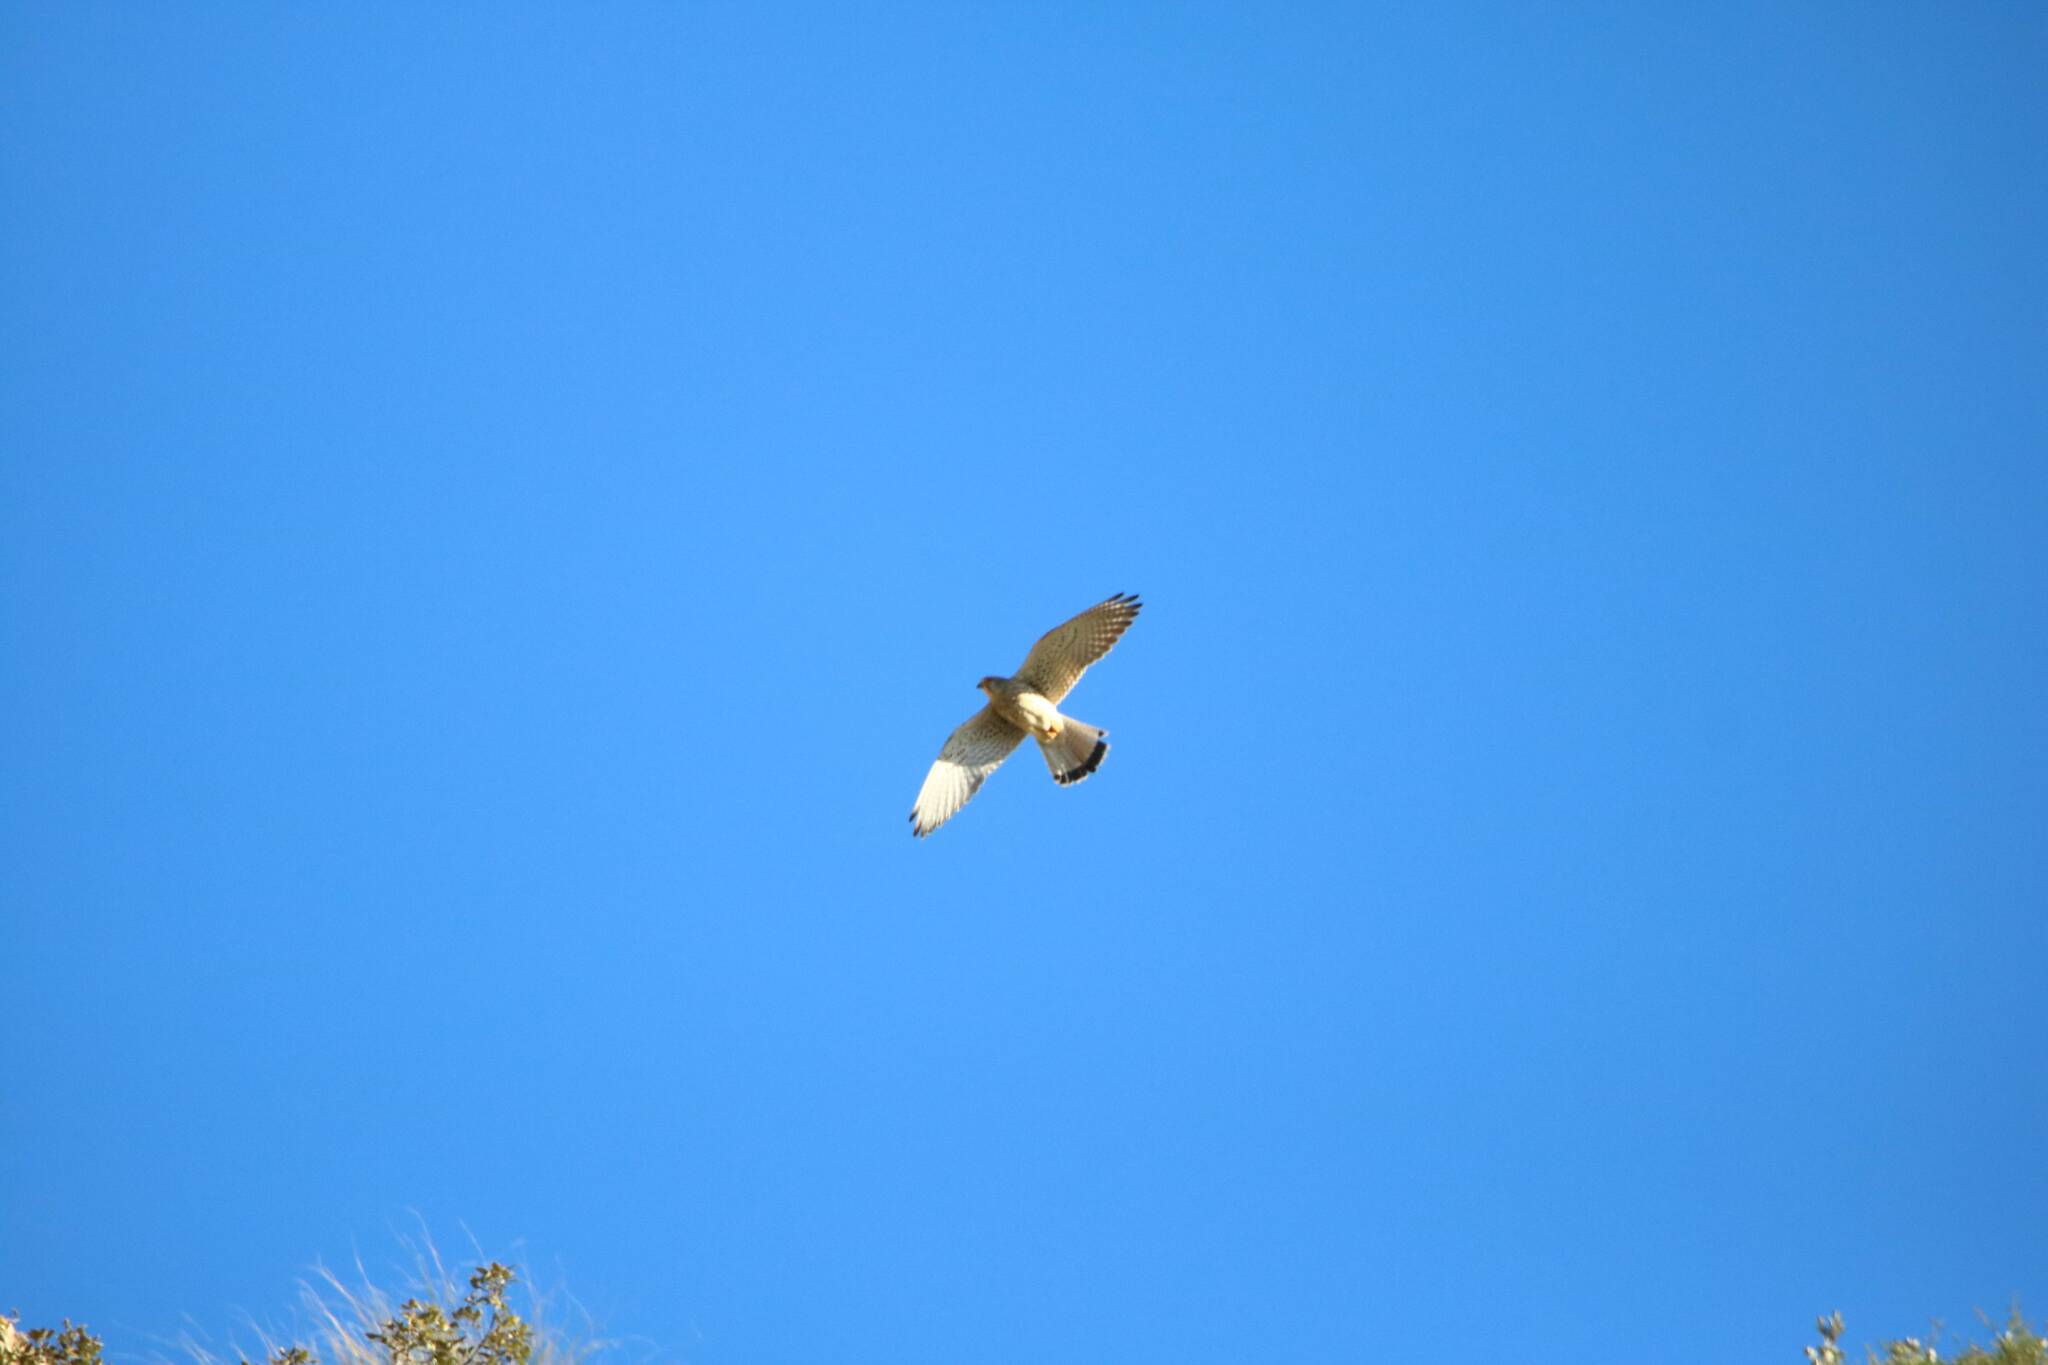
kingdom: Animalia
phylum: Chordata
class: Aves
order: Falconiformes
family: Falconidae
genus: Falco
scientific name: Falco tinnunculus
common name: Common kestrel
